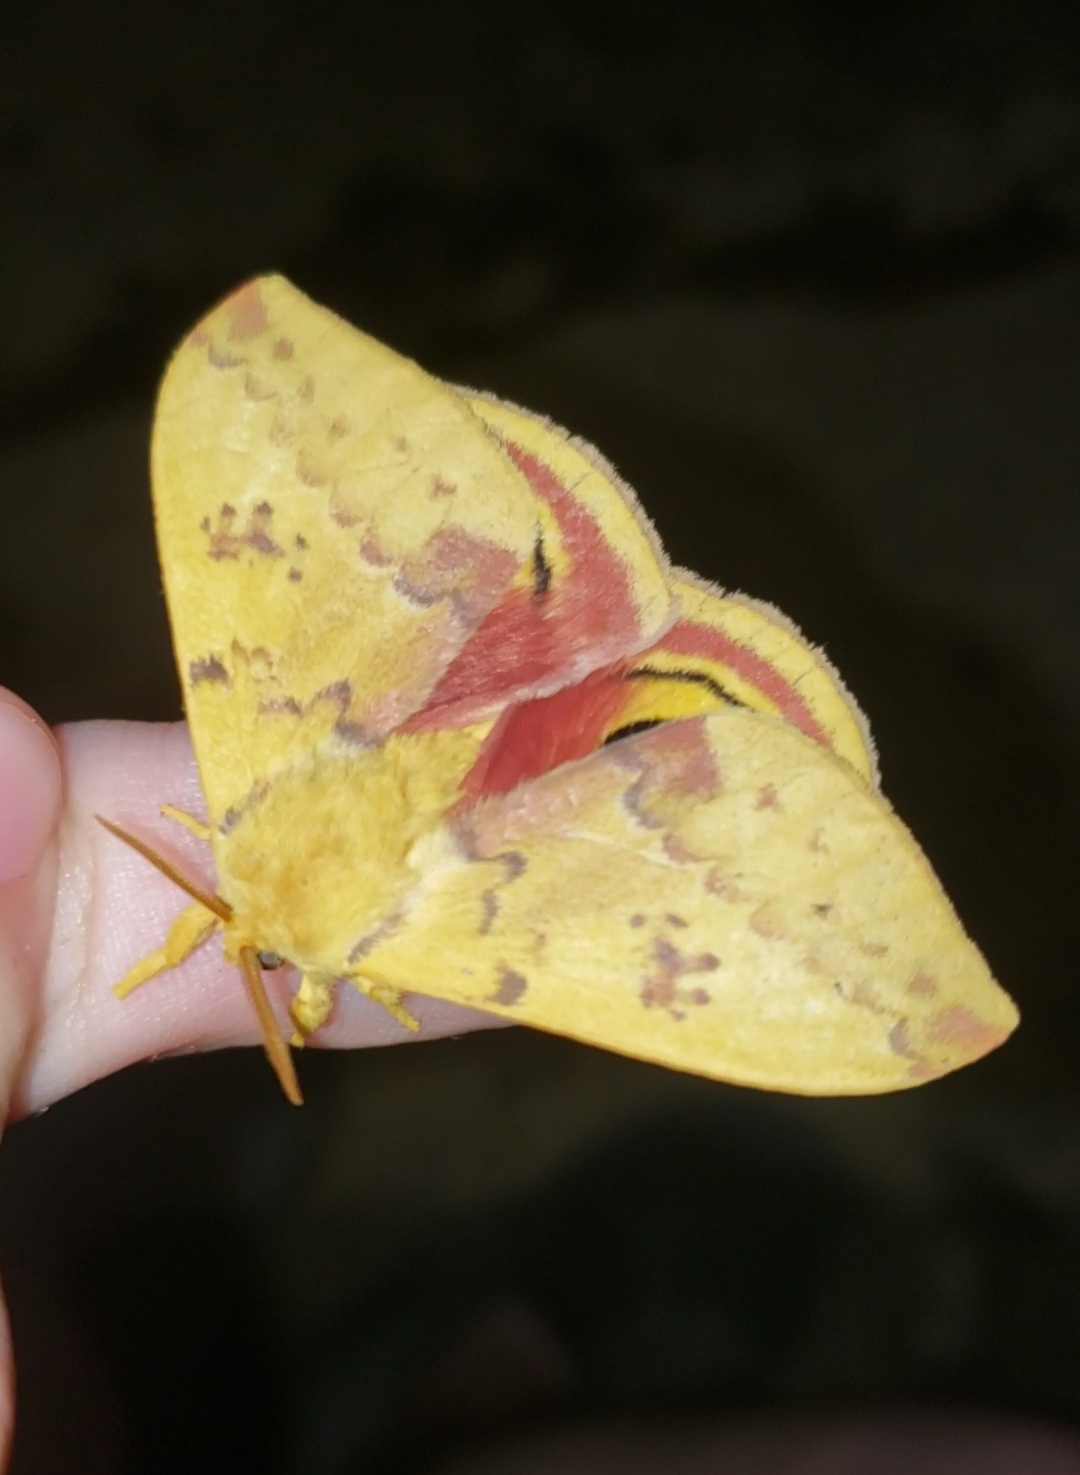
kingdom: Animalia
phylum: Arthropoda
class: Insecta
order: Lepidoptera
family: Saturniidae
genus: Automeris
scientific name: Automeris io
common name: Io moth
